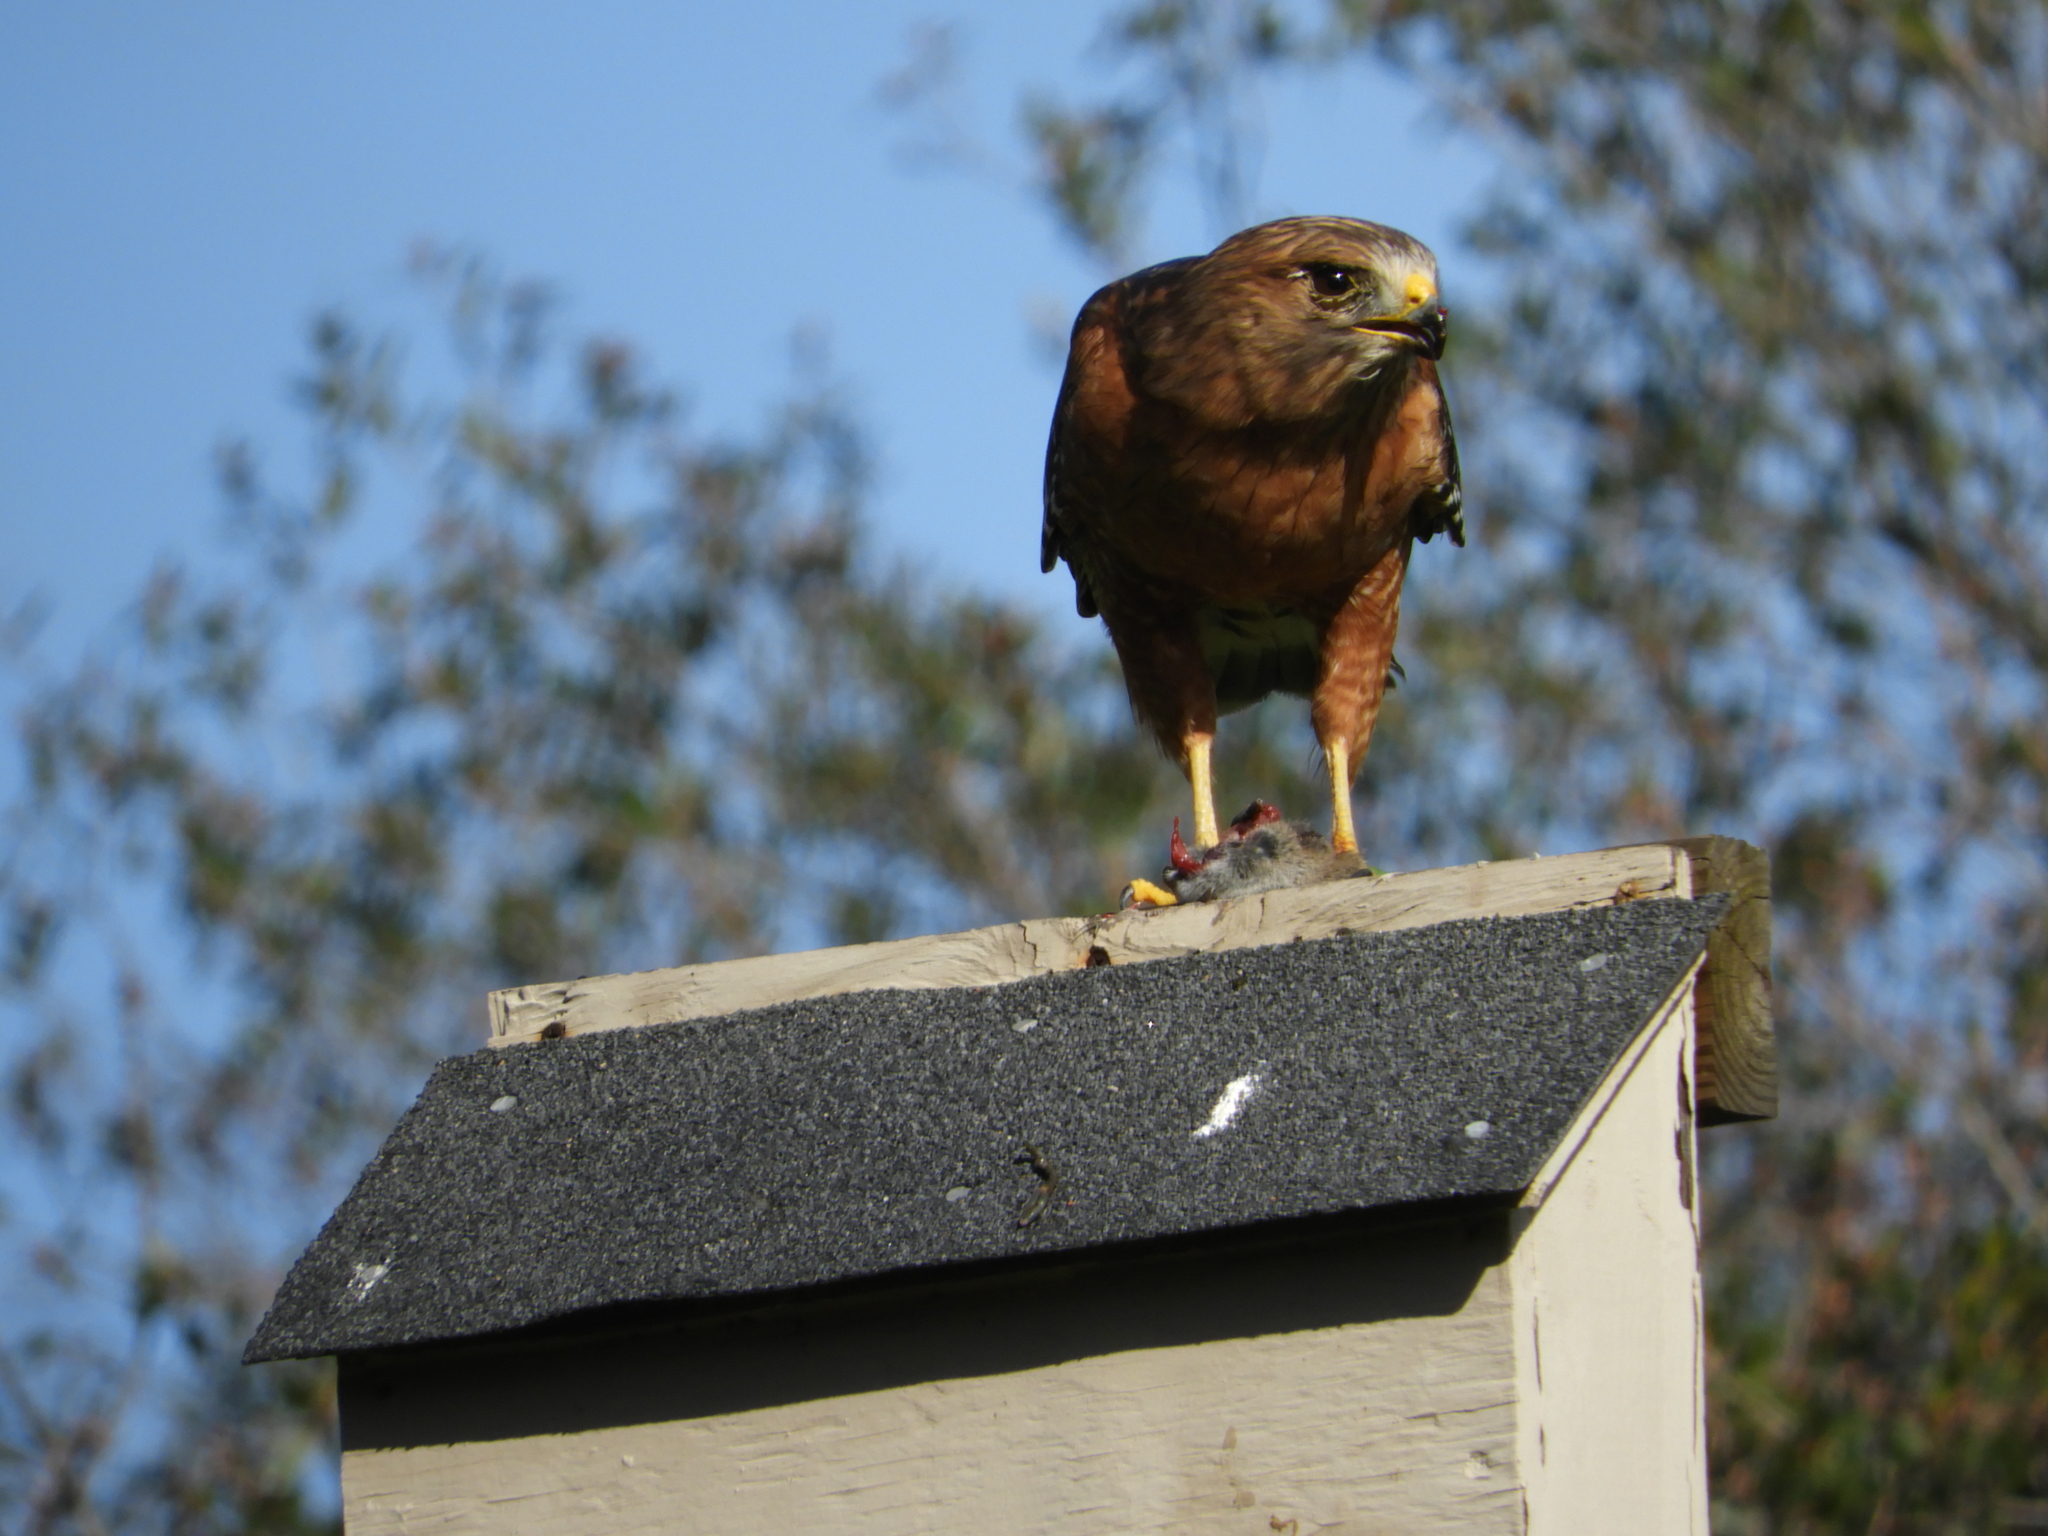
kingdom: Animalia
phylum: Chordata
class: Aves
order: Accipitriformes
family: Accipitridae
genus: Buteo
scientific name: Buteo lineatus
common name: Red-shouldered hawk
